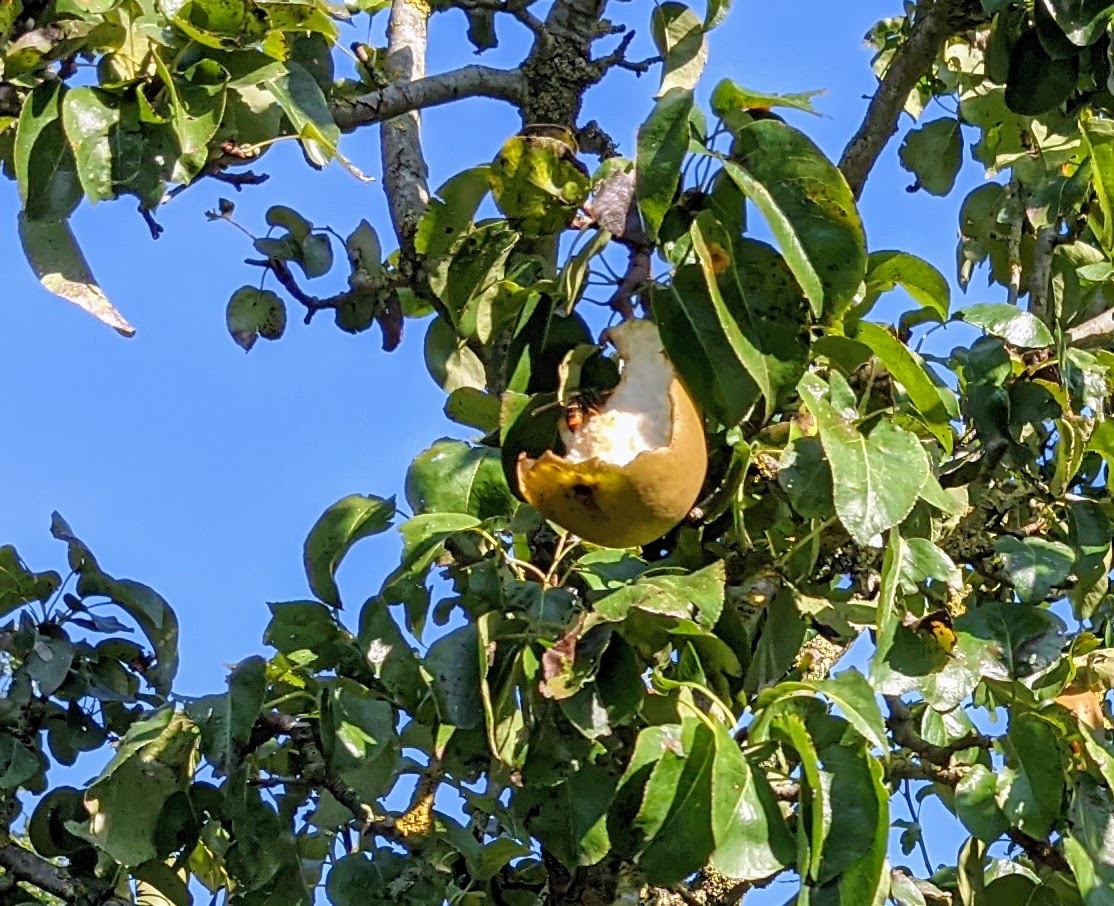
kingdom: Animalia
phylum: Arthropoda
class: Insecta
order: Hymenoptera
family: Vespidae
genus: Vespa
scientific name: Vespa velutina
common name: Asian hornet
